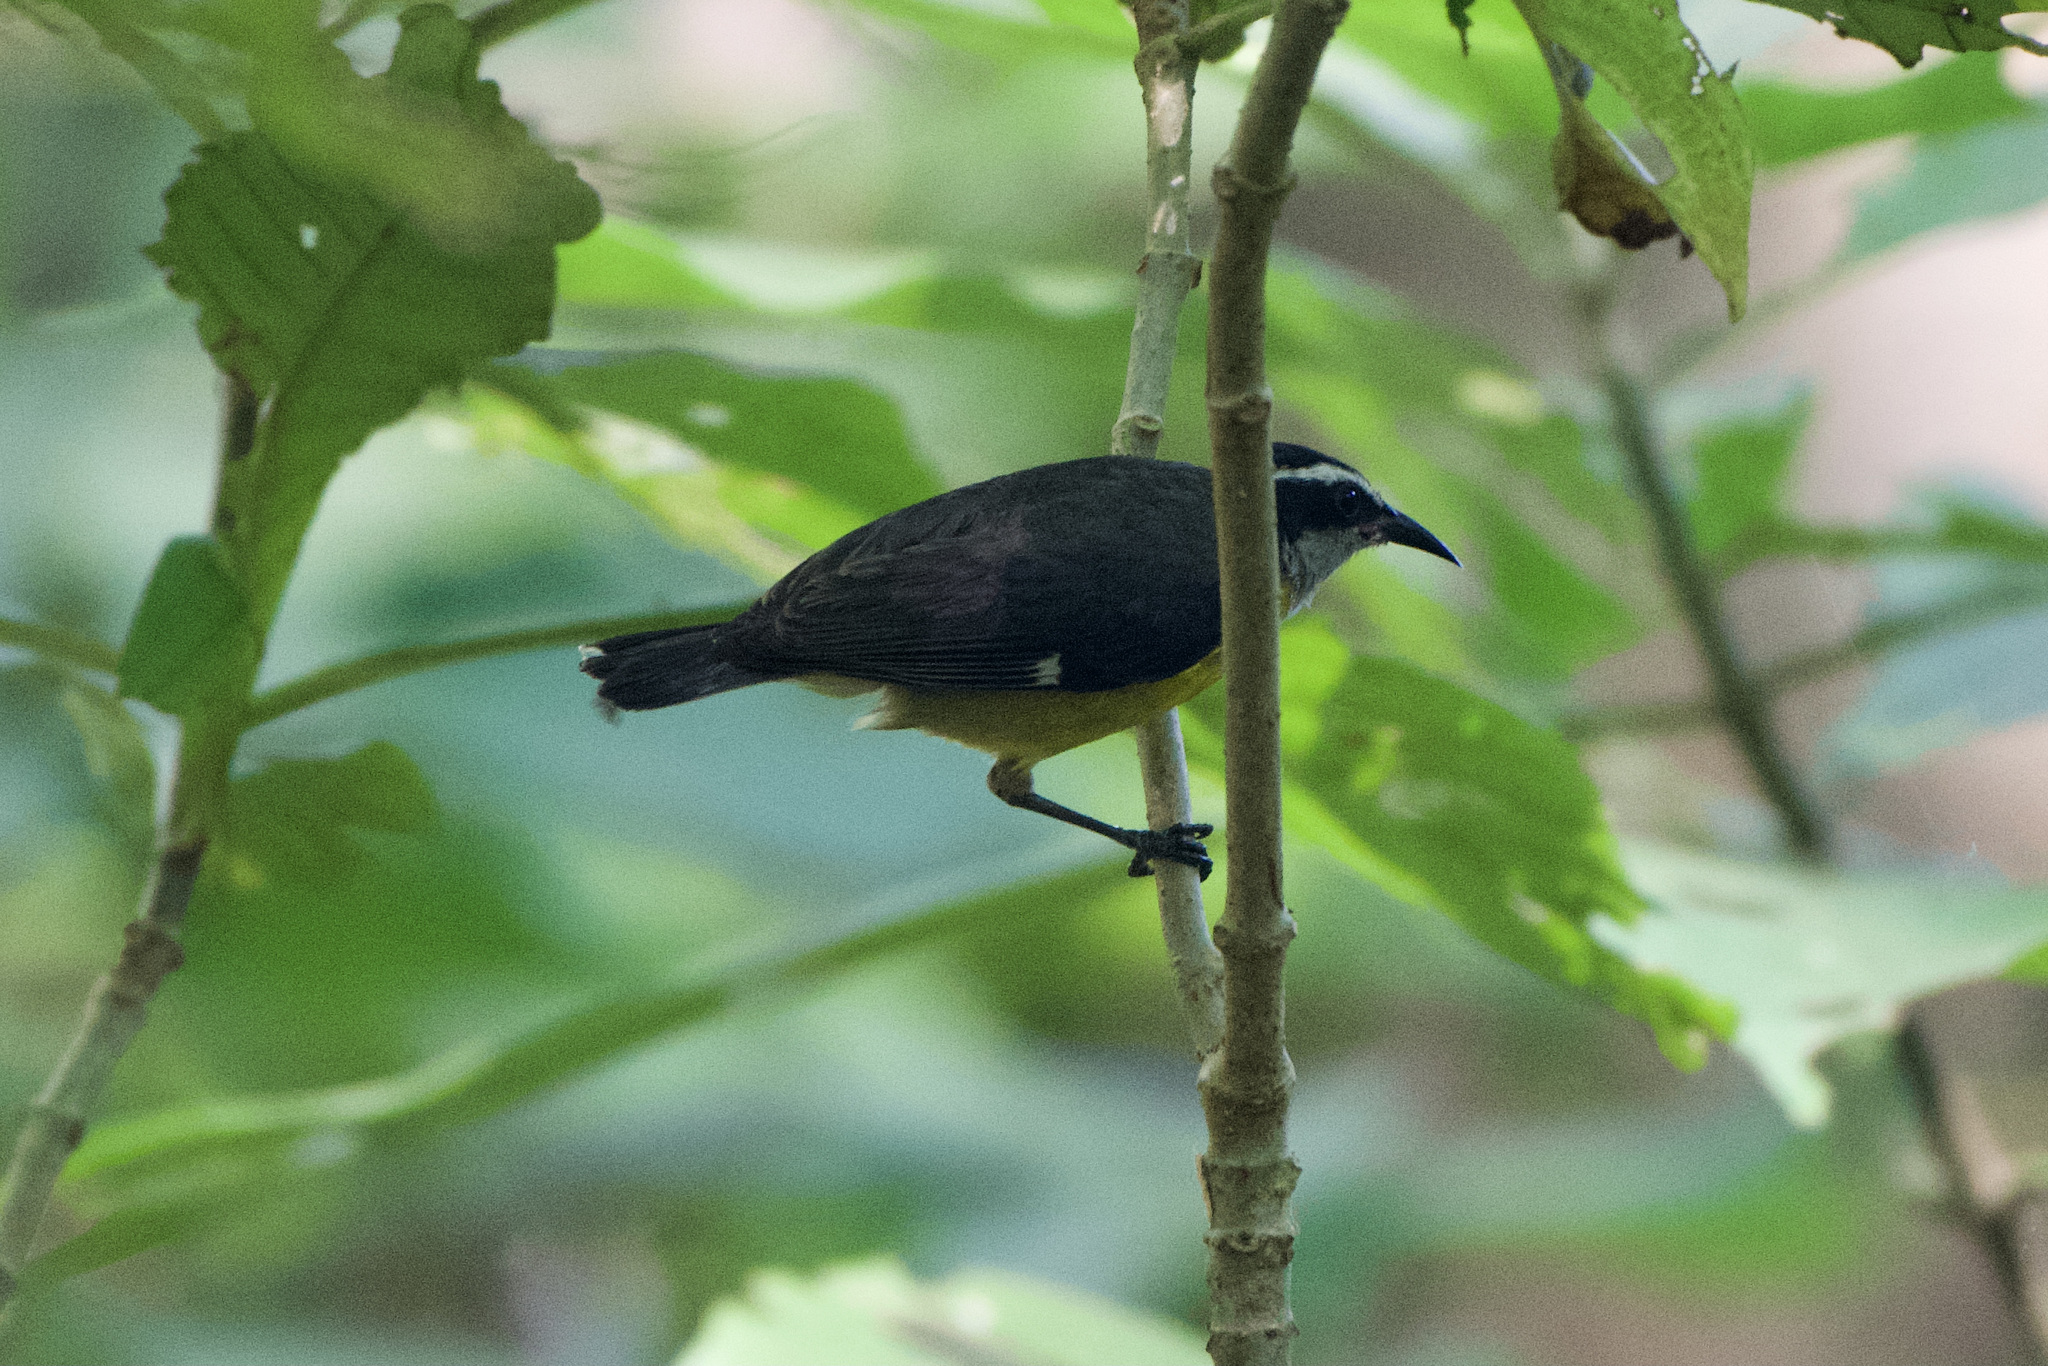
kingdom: Animalia
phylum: Chordata
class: Aves
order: Passeriformes
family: Thraupidae
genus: Coereba
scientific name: Coereba flaveola
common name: Bananaquit
